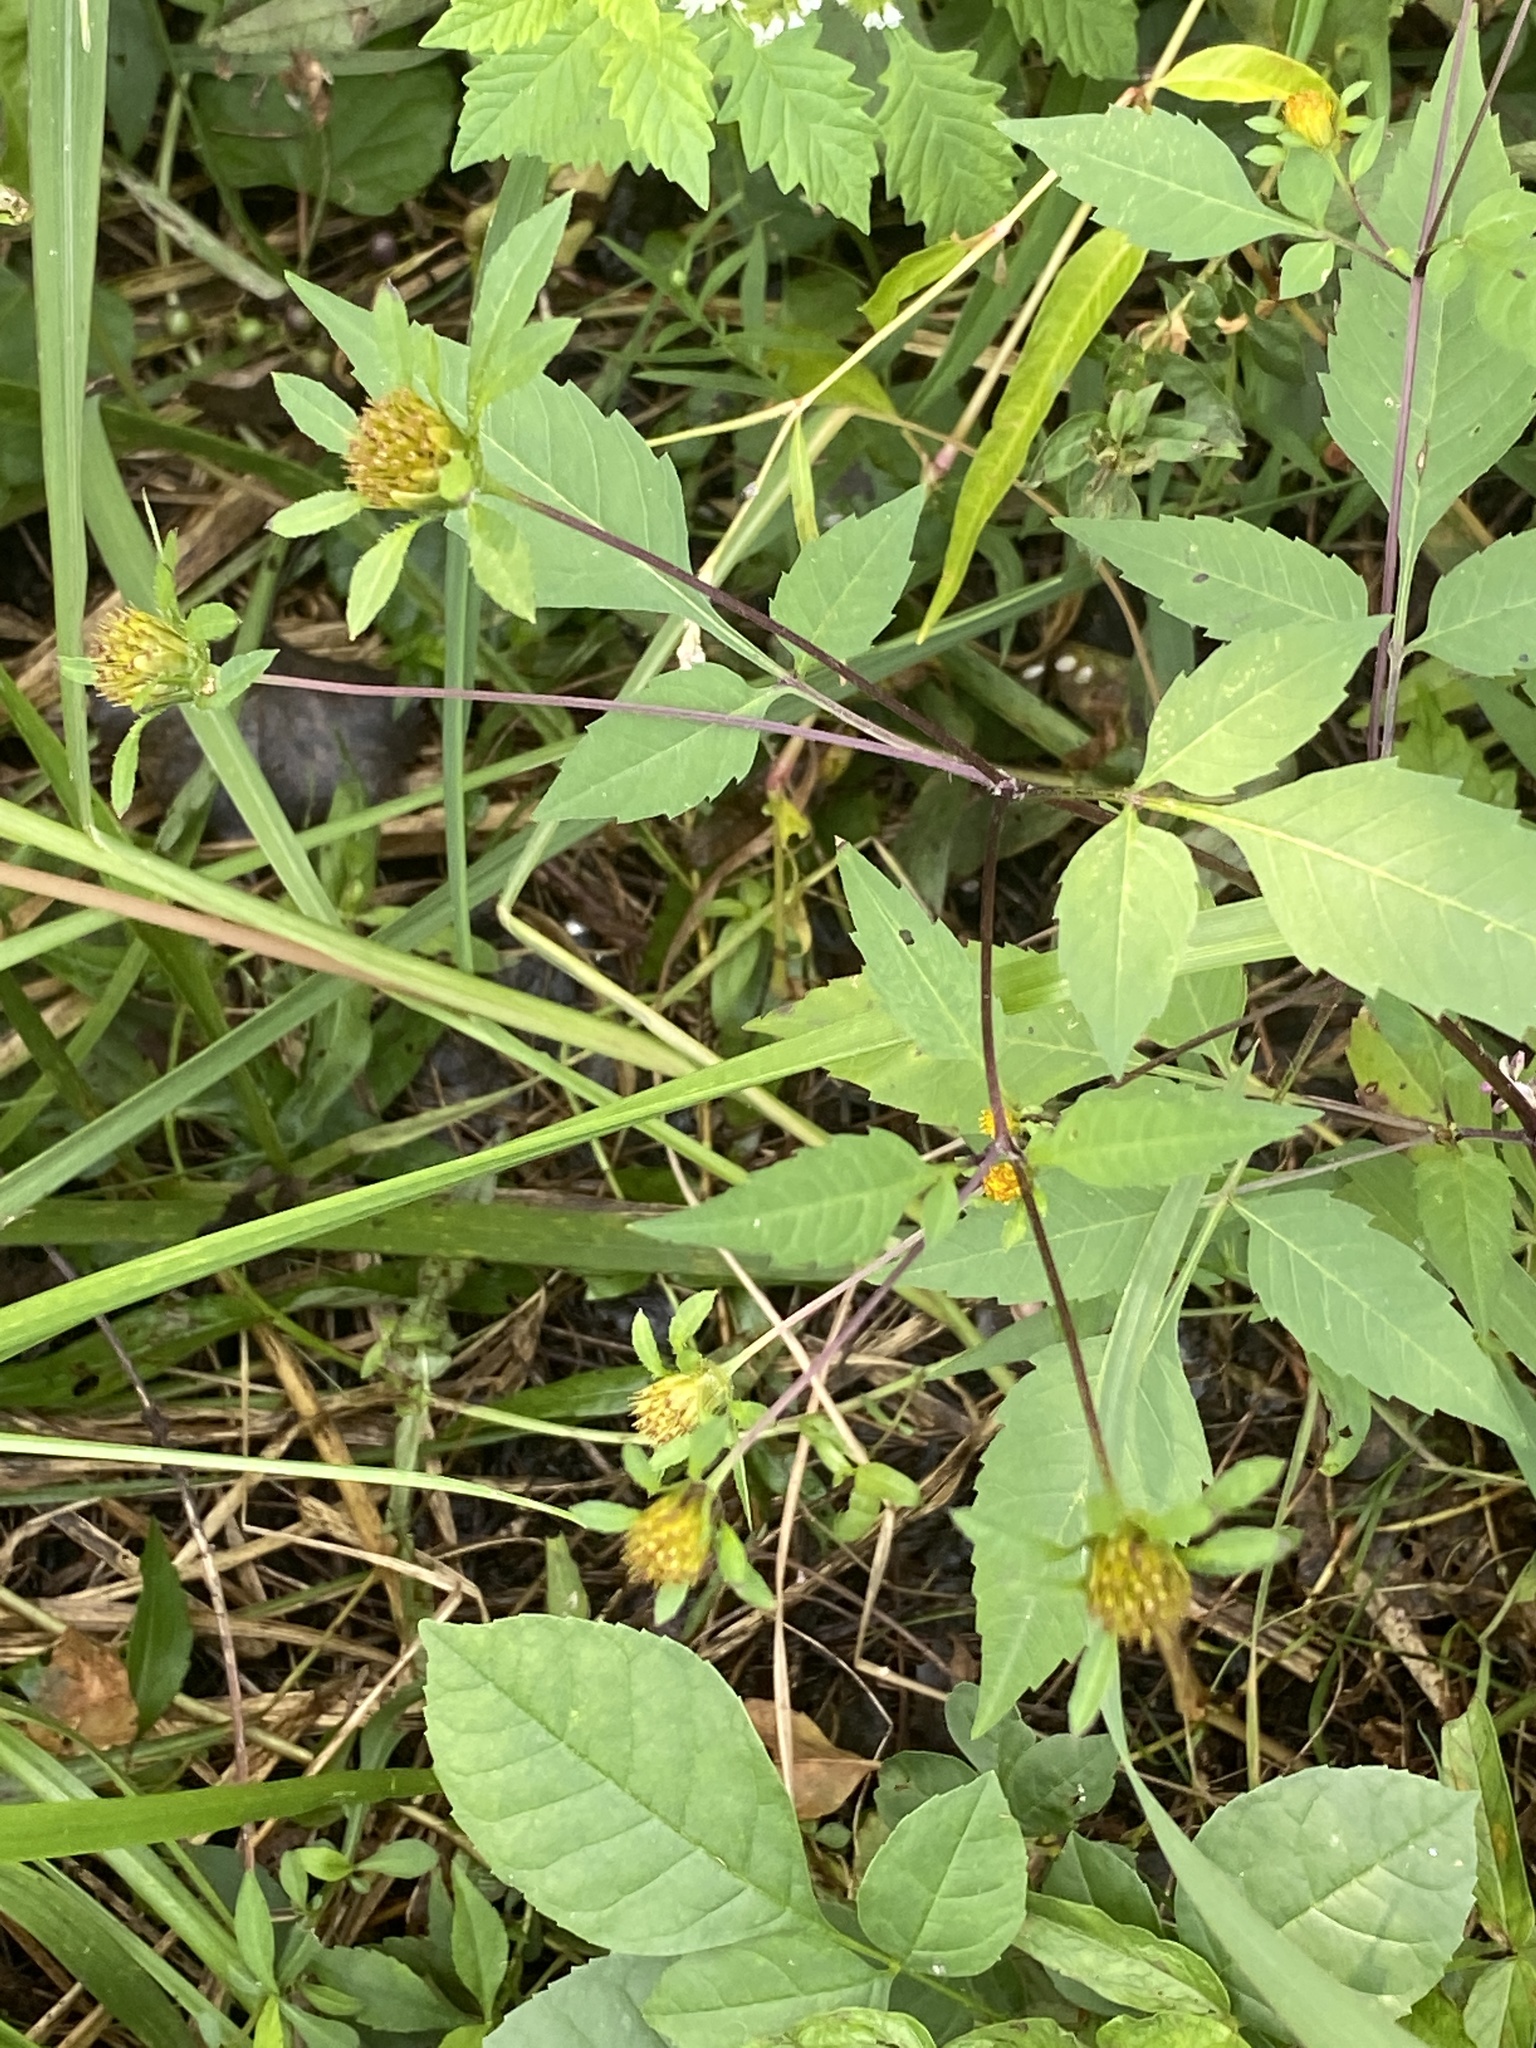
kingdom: Plantae
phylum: Tracheophyta
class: Magnoliopsida
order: Asterales
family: Asteraceae
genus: Bidens
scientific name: Bidens frondosa
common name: Beggarticks
